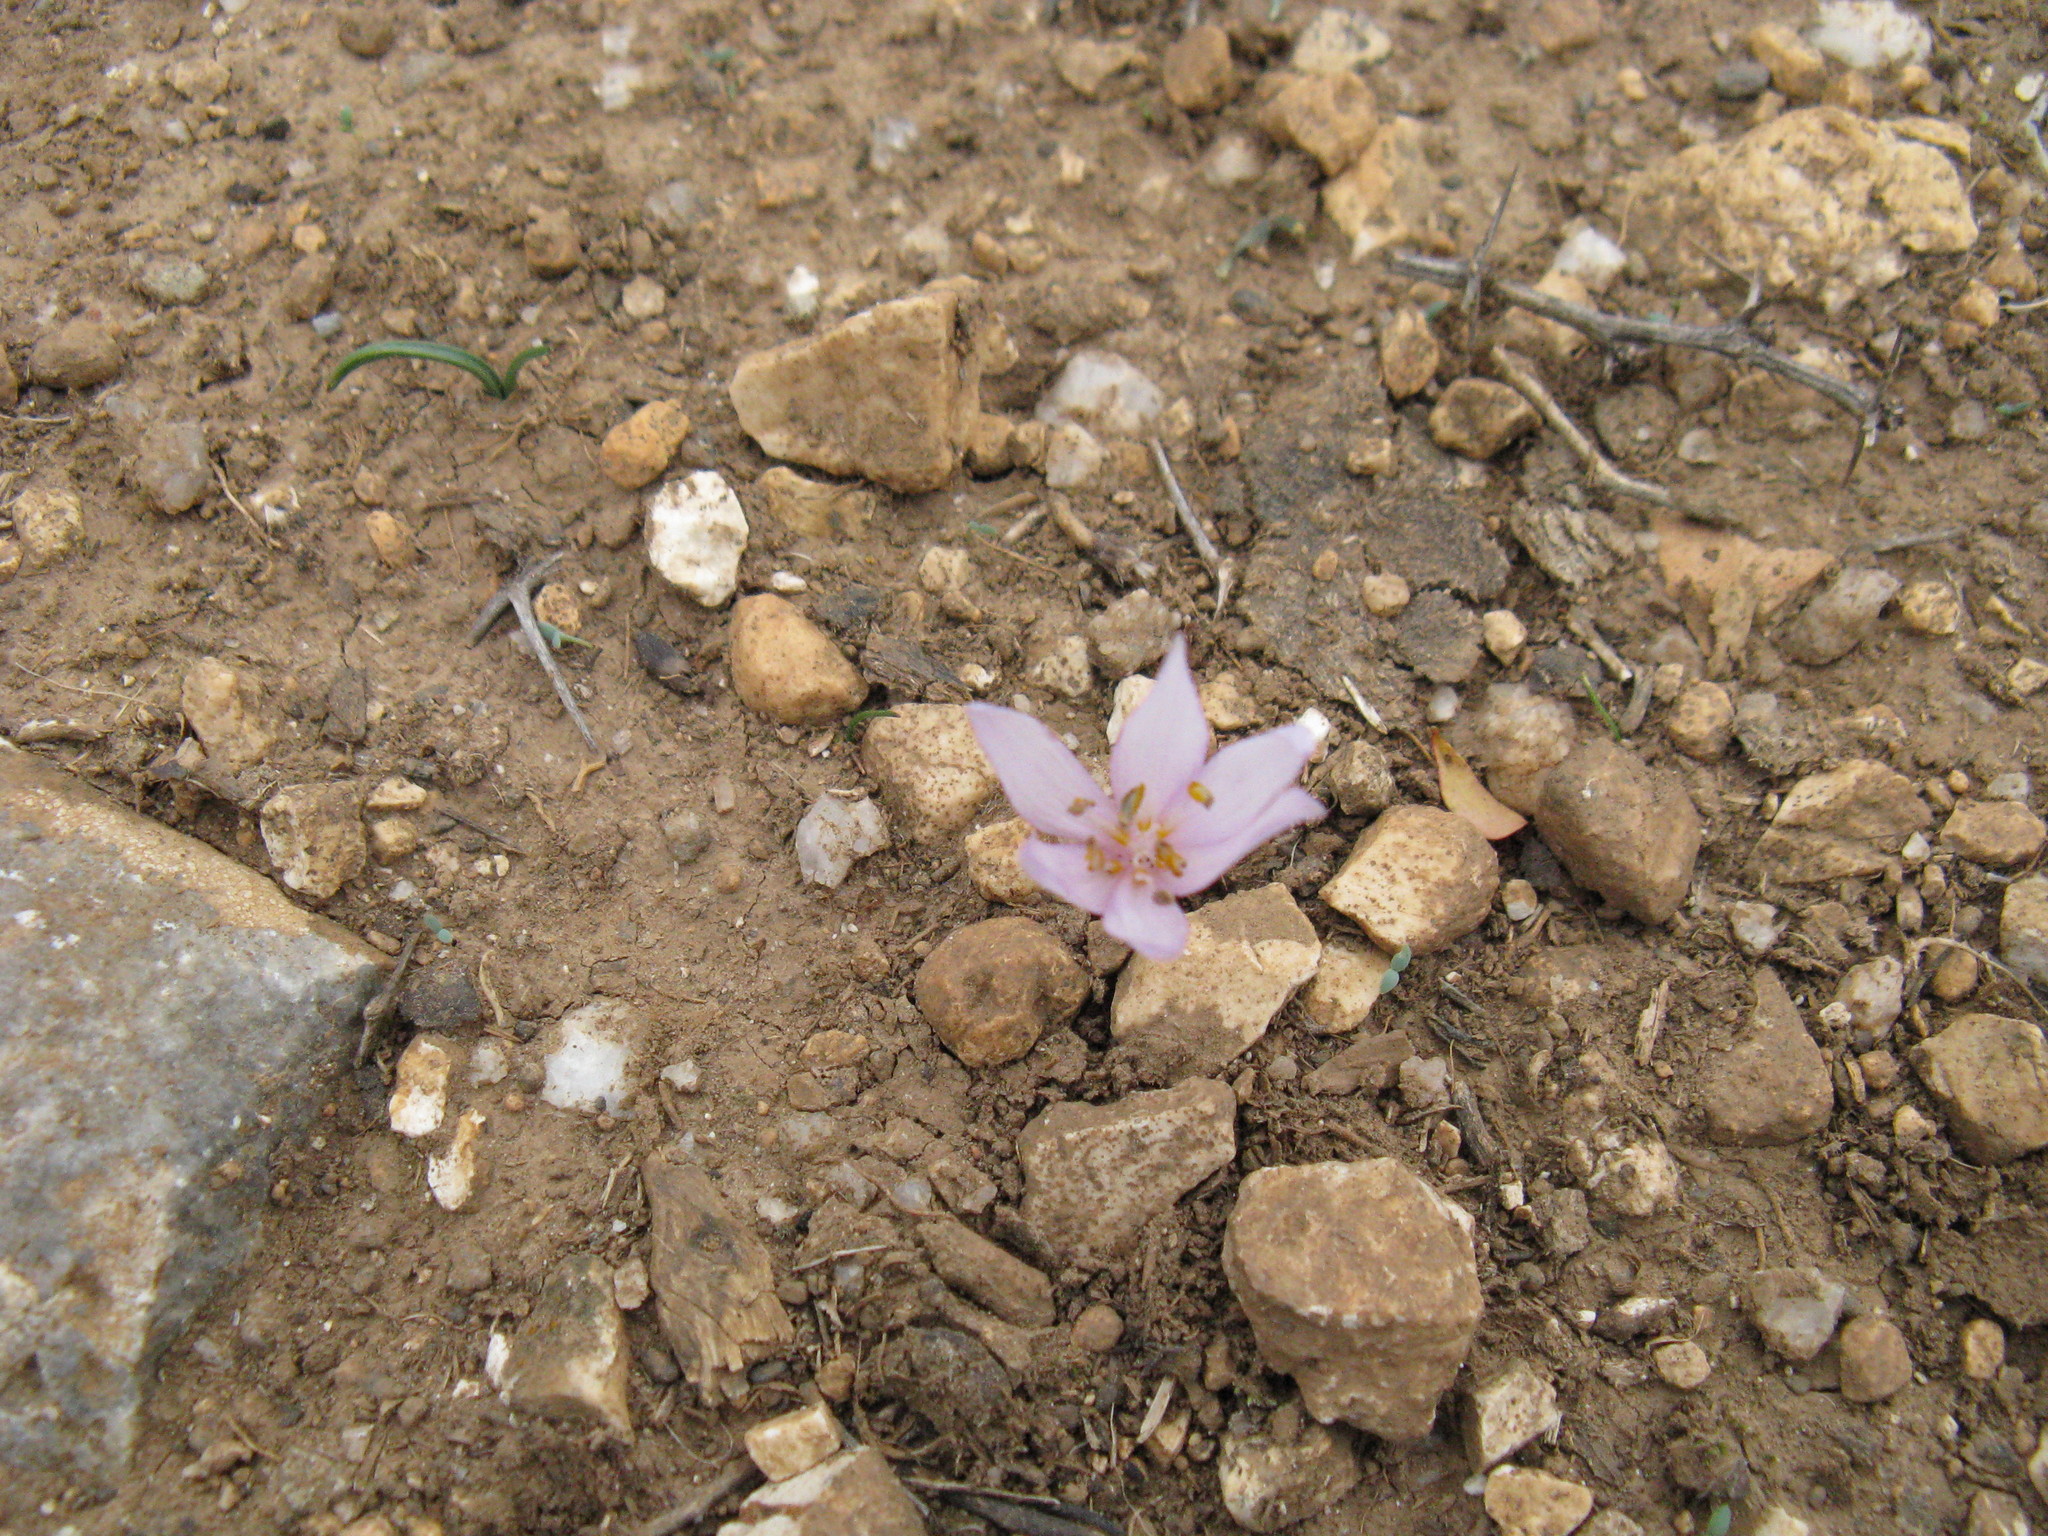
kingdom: Plantae
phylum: Tracheophyta
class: Liliopsida
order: Liliales
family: Colchicaceae
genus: Colchicum
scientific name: Colchicum cretense
